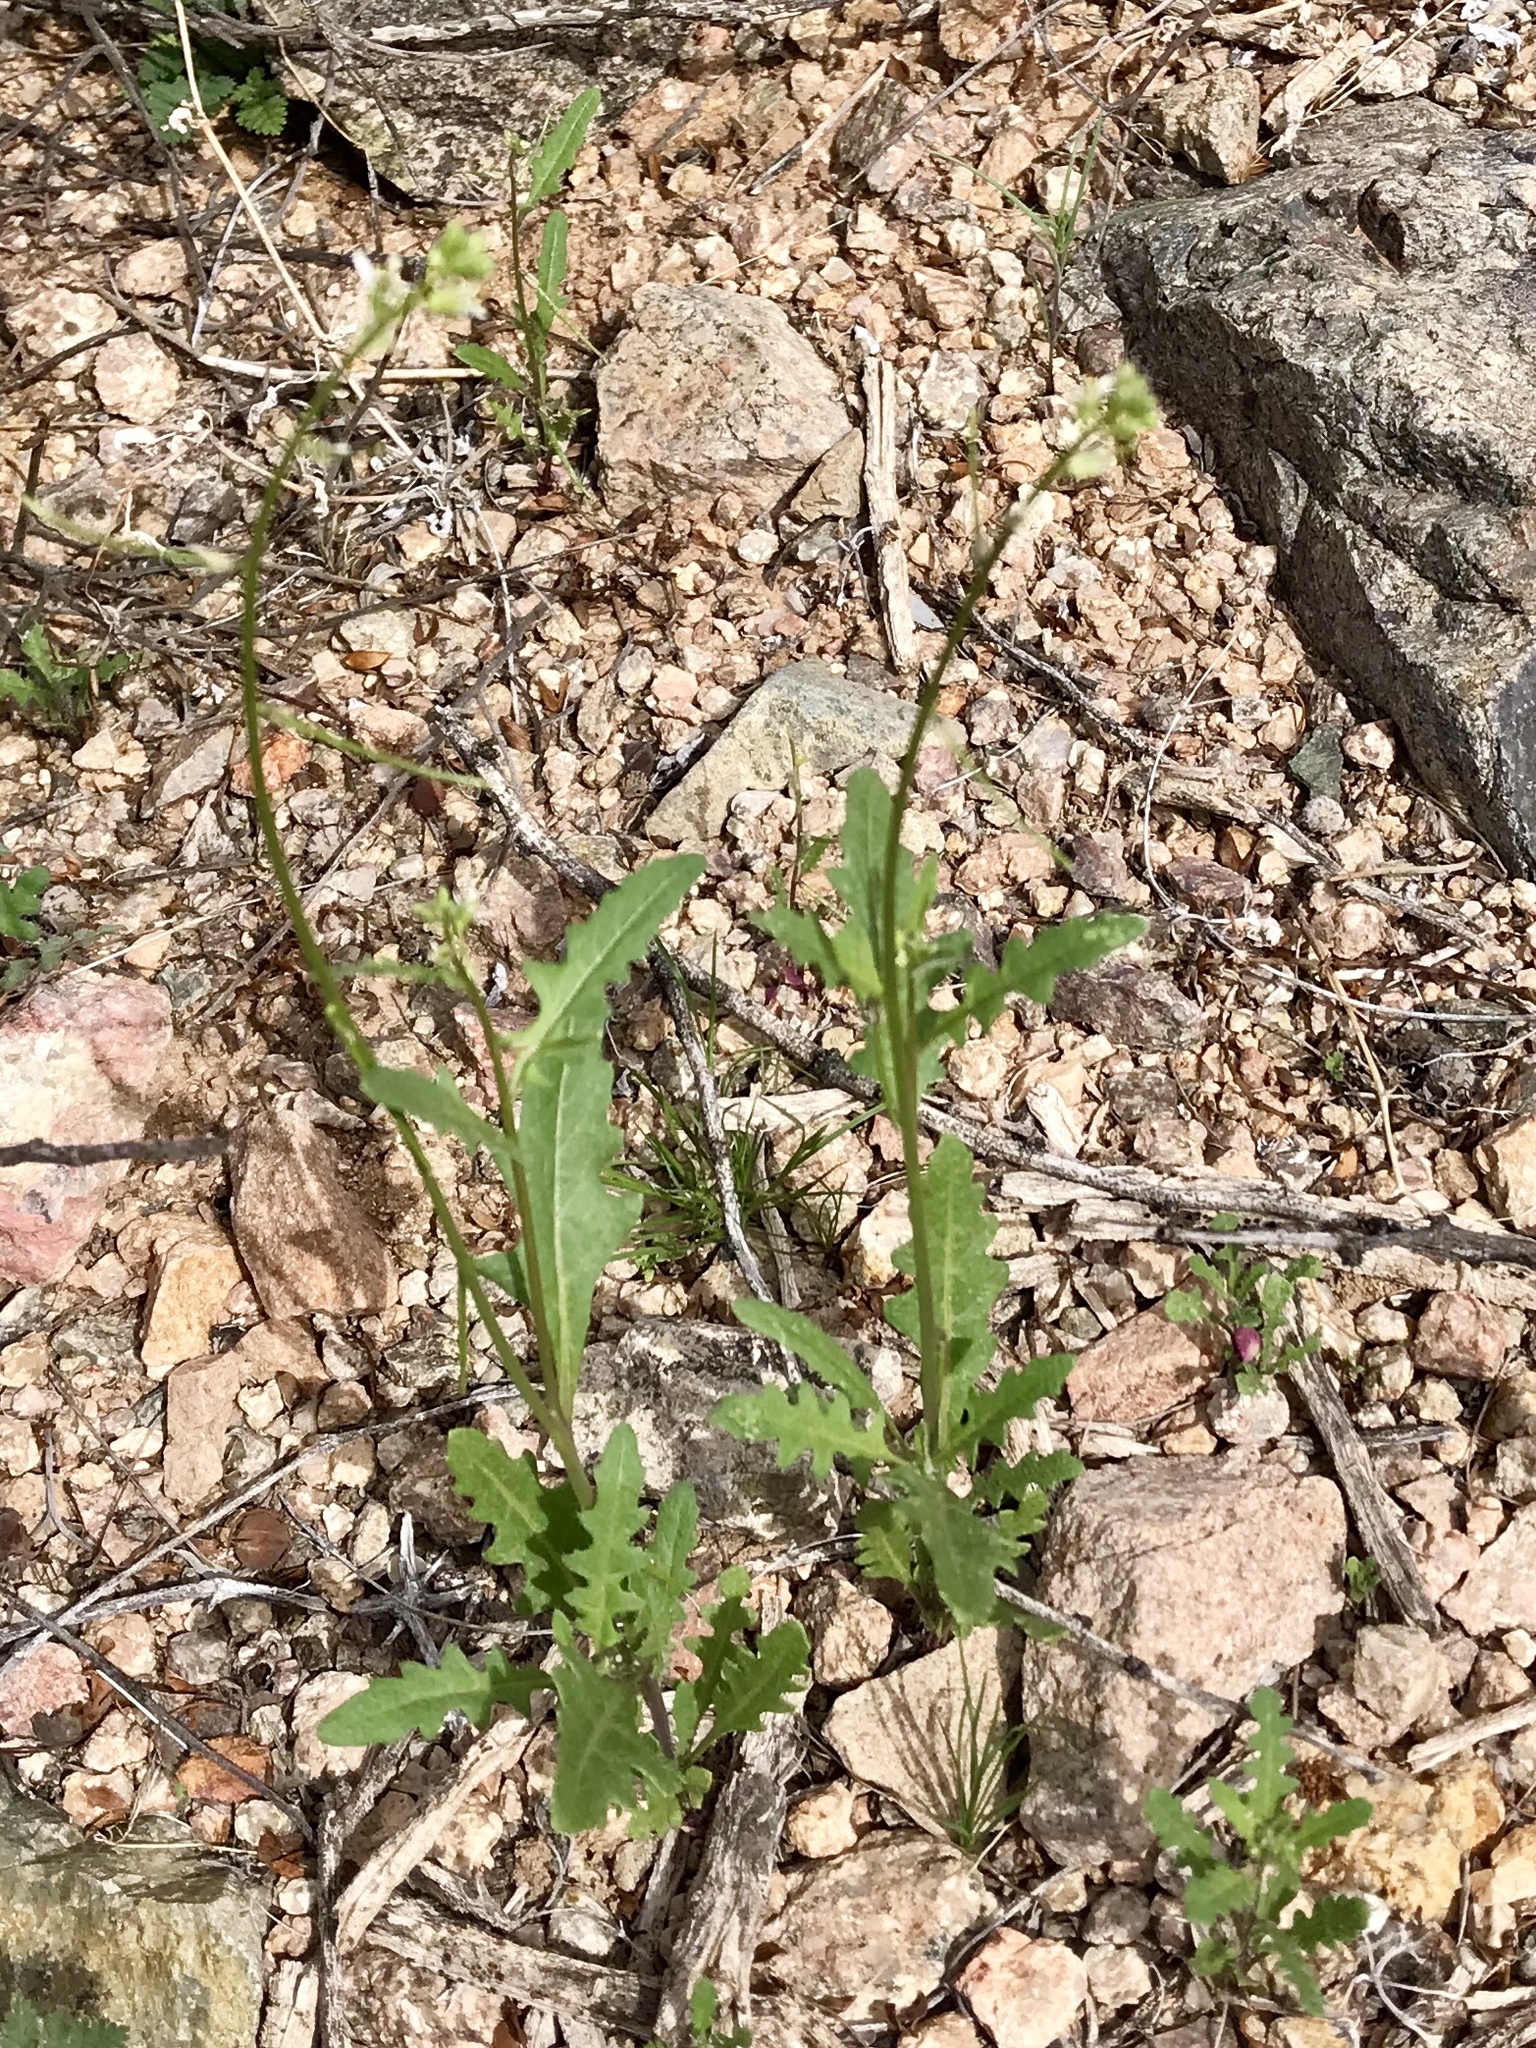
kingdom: Plantae
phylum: Tracheophyta
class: Magnoliopsida
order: Brassicales
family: Brassicaceae
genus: Streptanthus
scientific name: Streptanthus lasiophyllus
